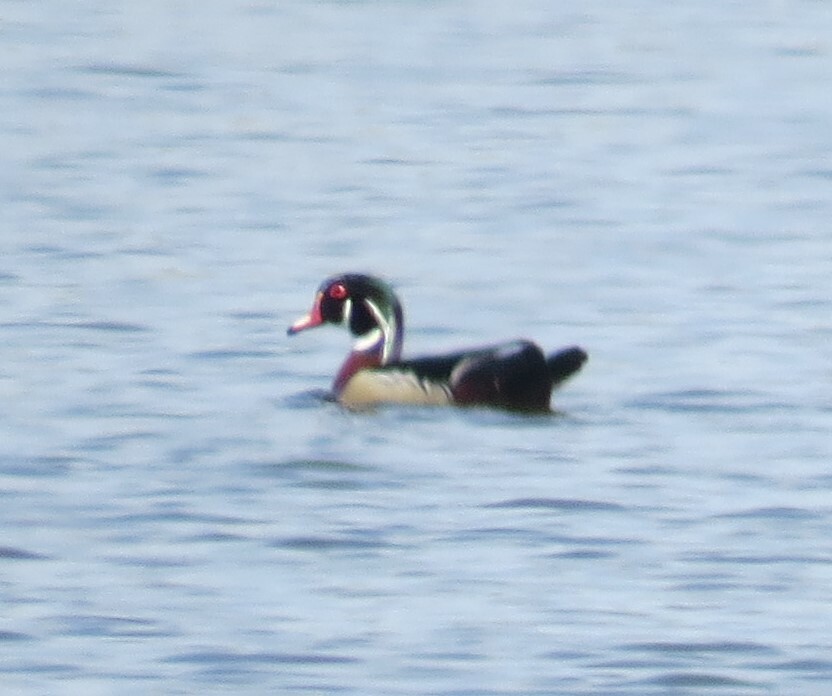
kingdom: Animalia
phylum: Chordata
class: Aves
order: Anseriformes
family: Anatidae
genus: Aix
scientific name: Aix sponsa
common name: Wood duck
